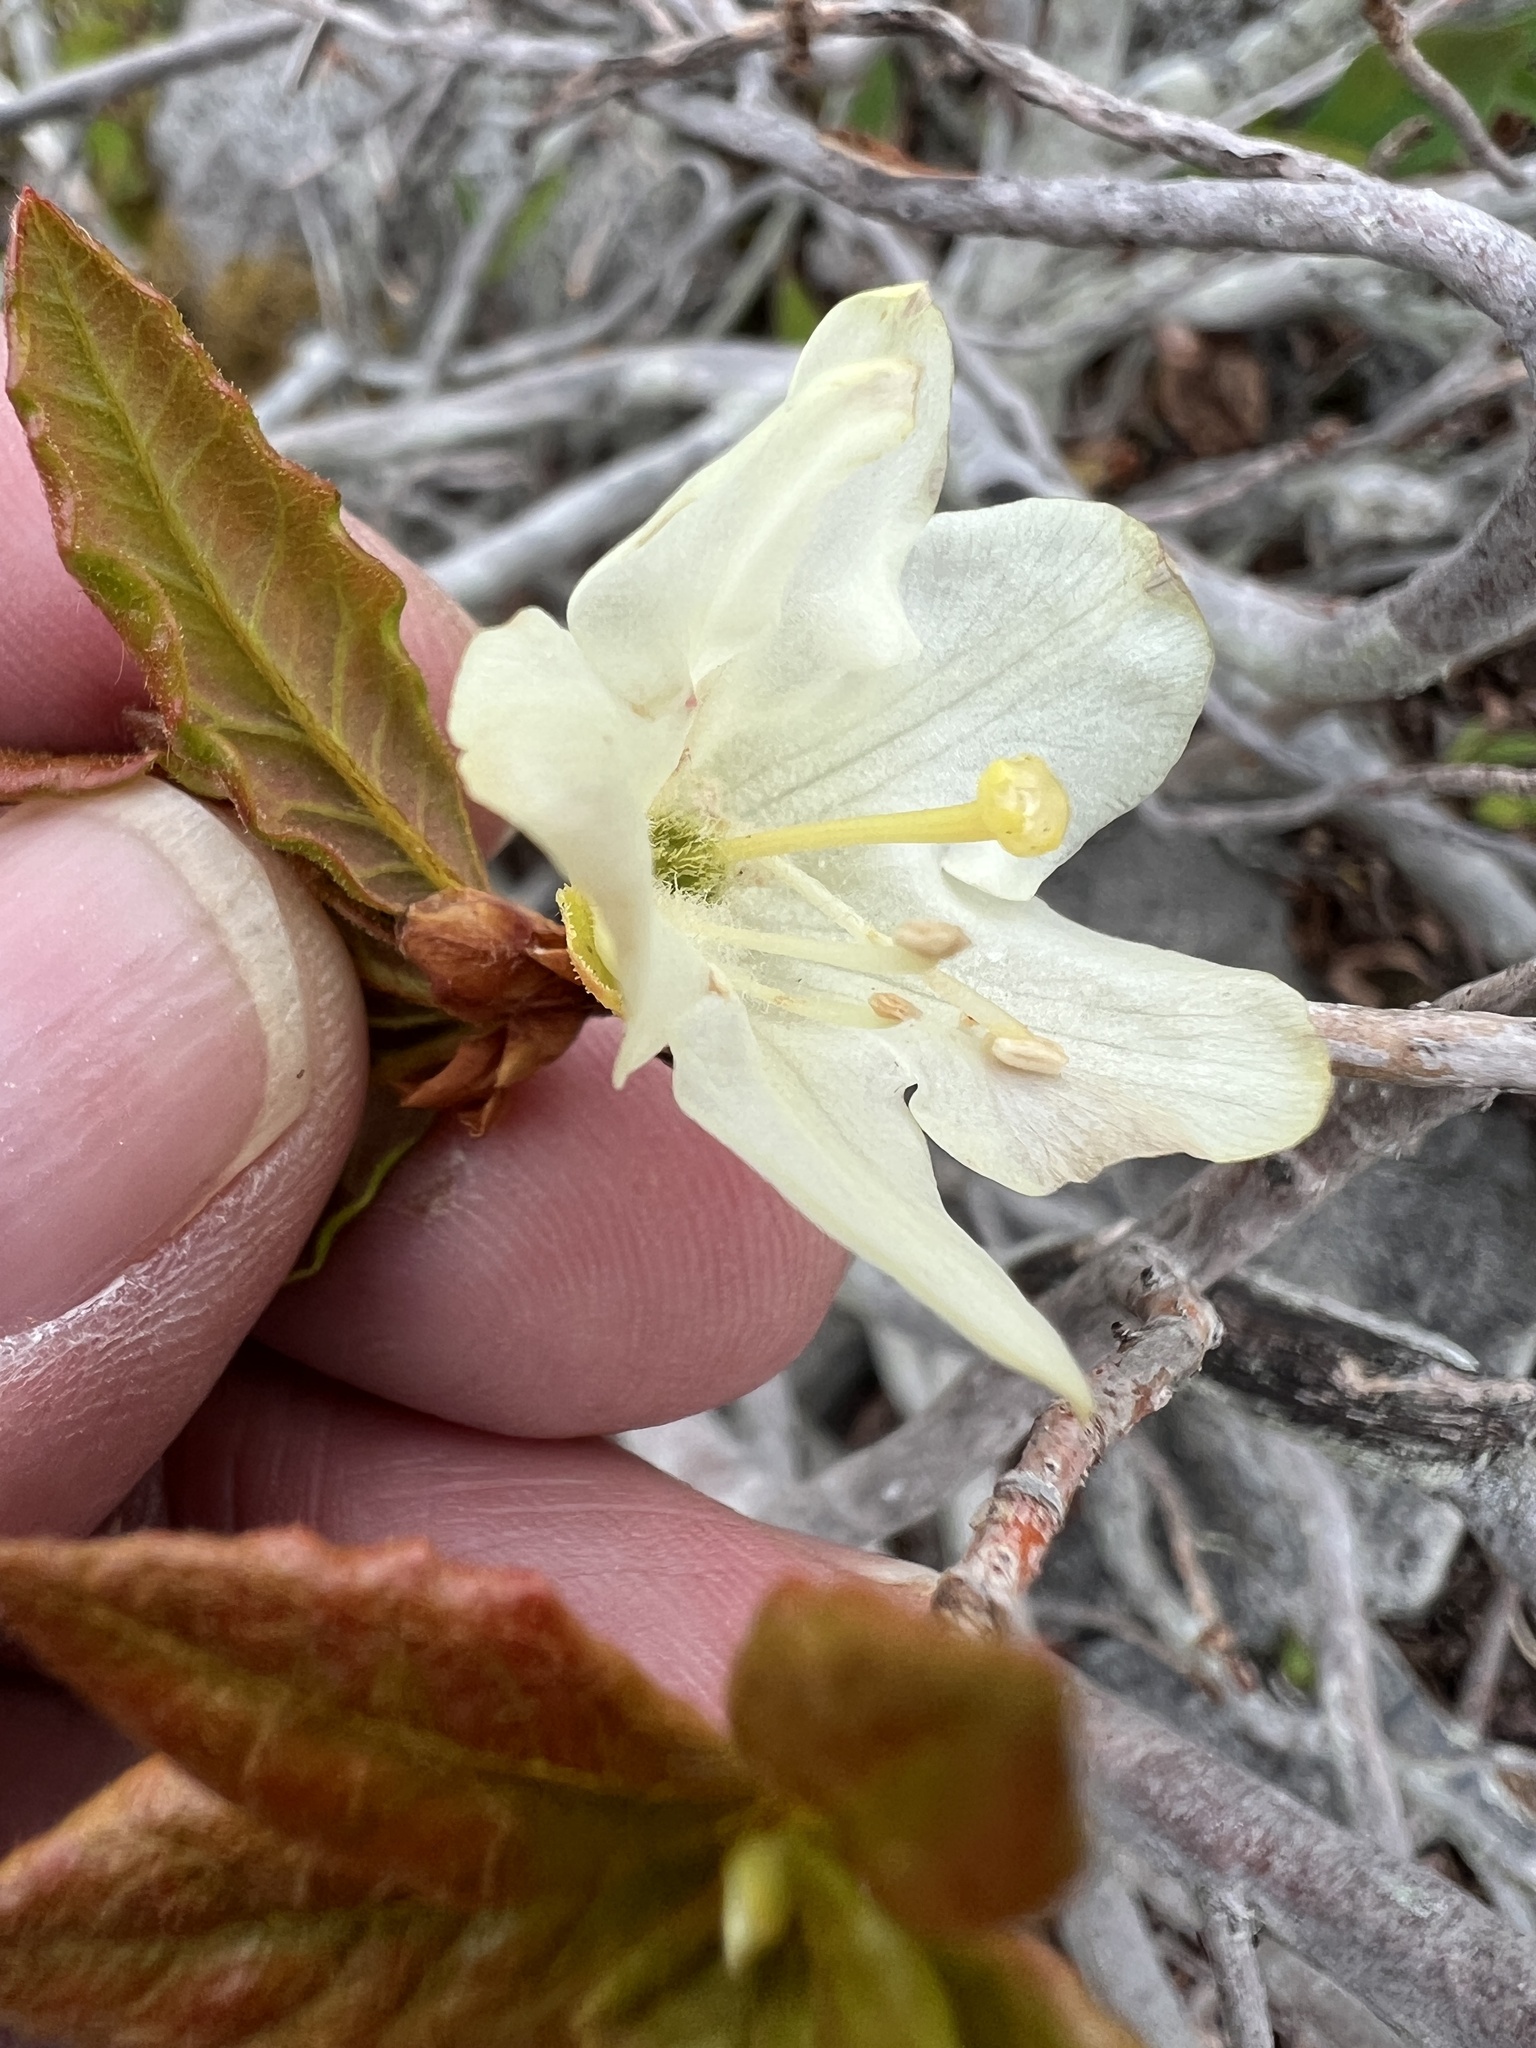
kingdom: Plantae
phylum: Tracheophyta
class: Magnoliopsida
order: Ericales
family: Ericaceae
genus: Rhododendron
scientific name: Rhododendron albiflorum
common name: White rhododendron
